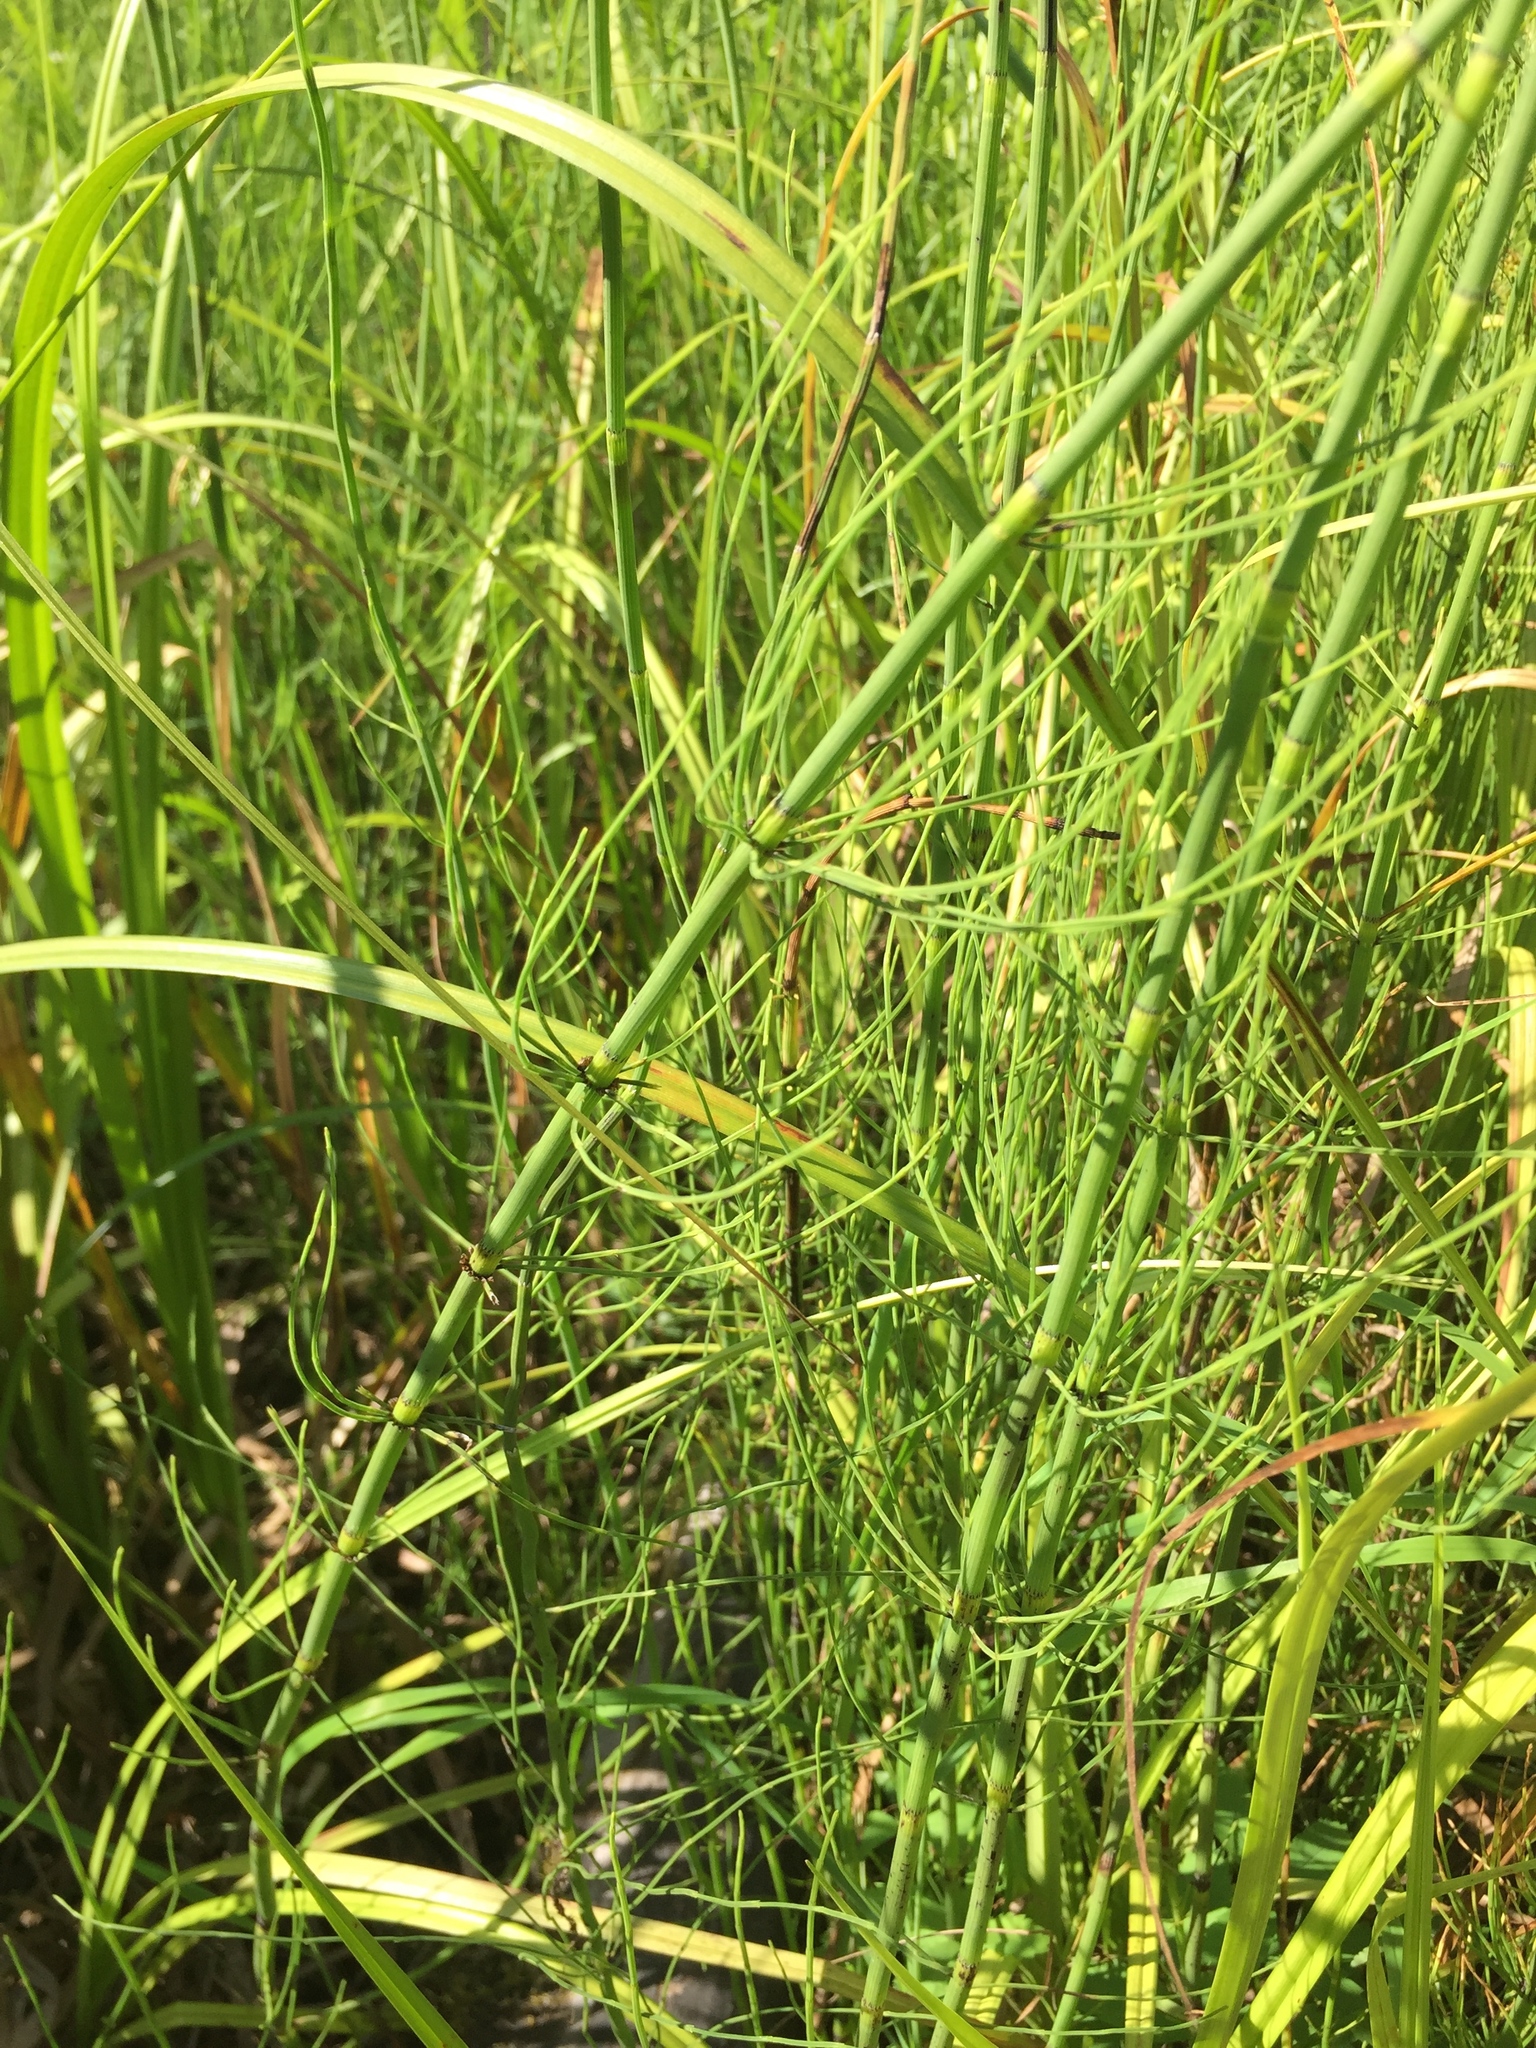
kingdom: Plantae
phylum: Tracheophyta
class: Polypodiopsida
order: Equisetales
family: Equisetaceae
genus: Equisetum
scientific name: Equisetum fluviatile
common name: Water horsetail
